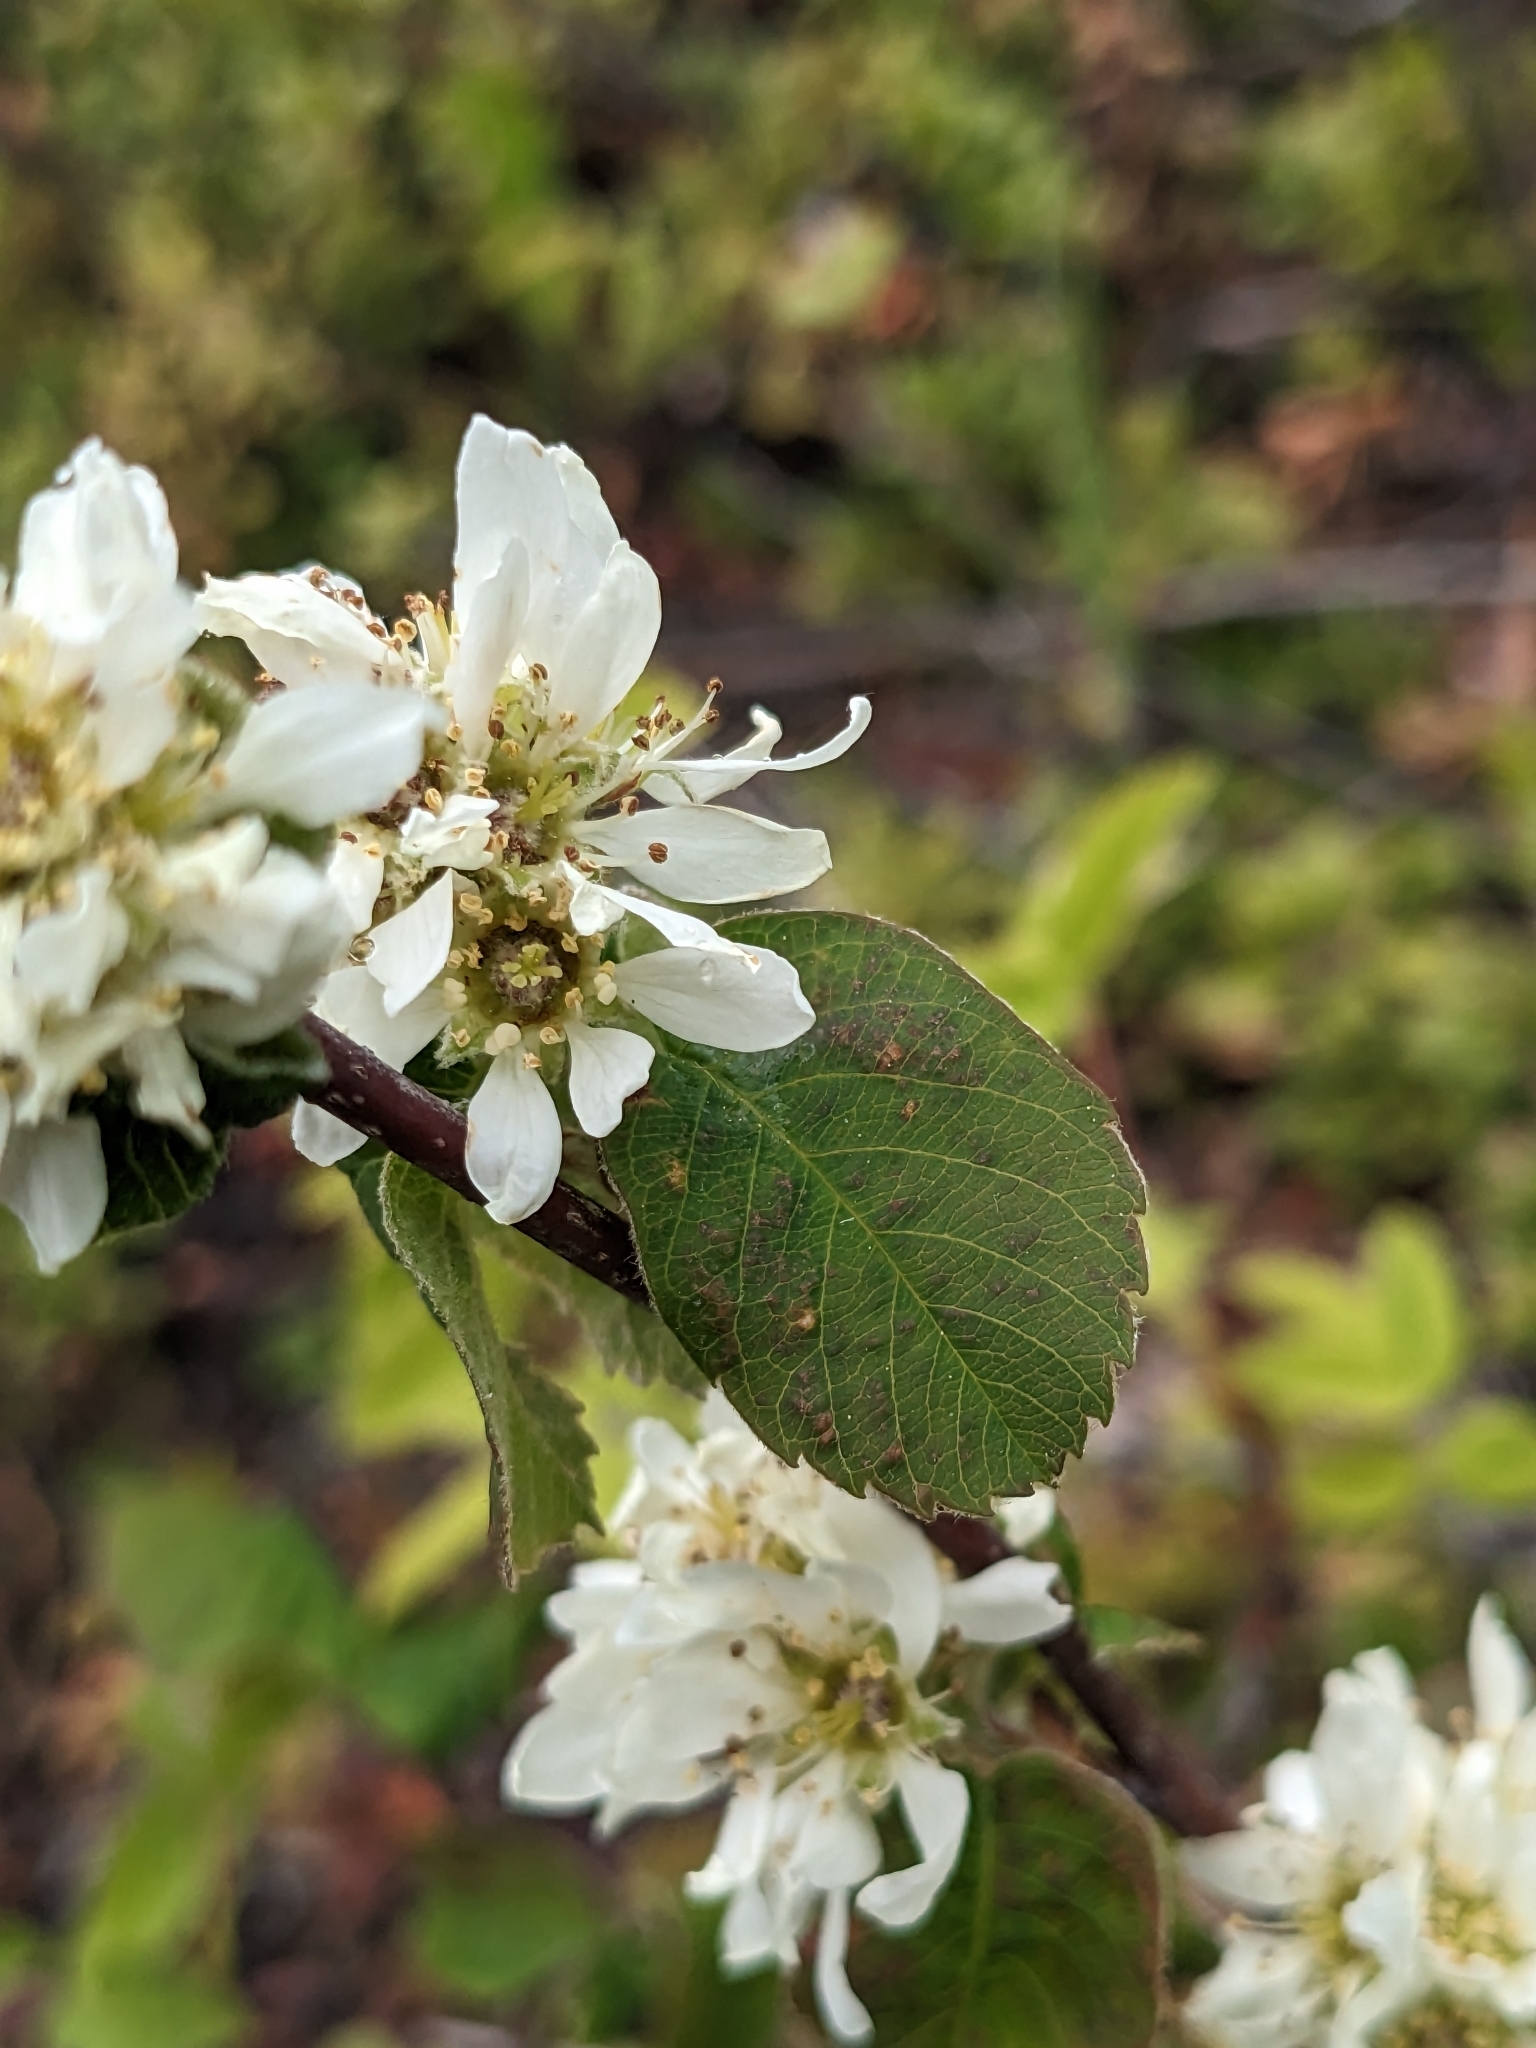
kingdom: Plantae
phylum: Tracheophyta
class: Magnoliopsida
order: Rosales
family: Rosaceae
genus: Amelanchier
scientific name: Amelanchier alnifolia
